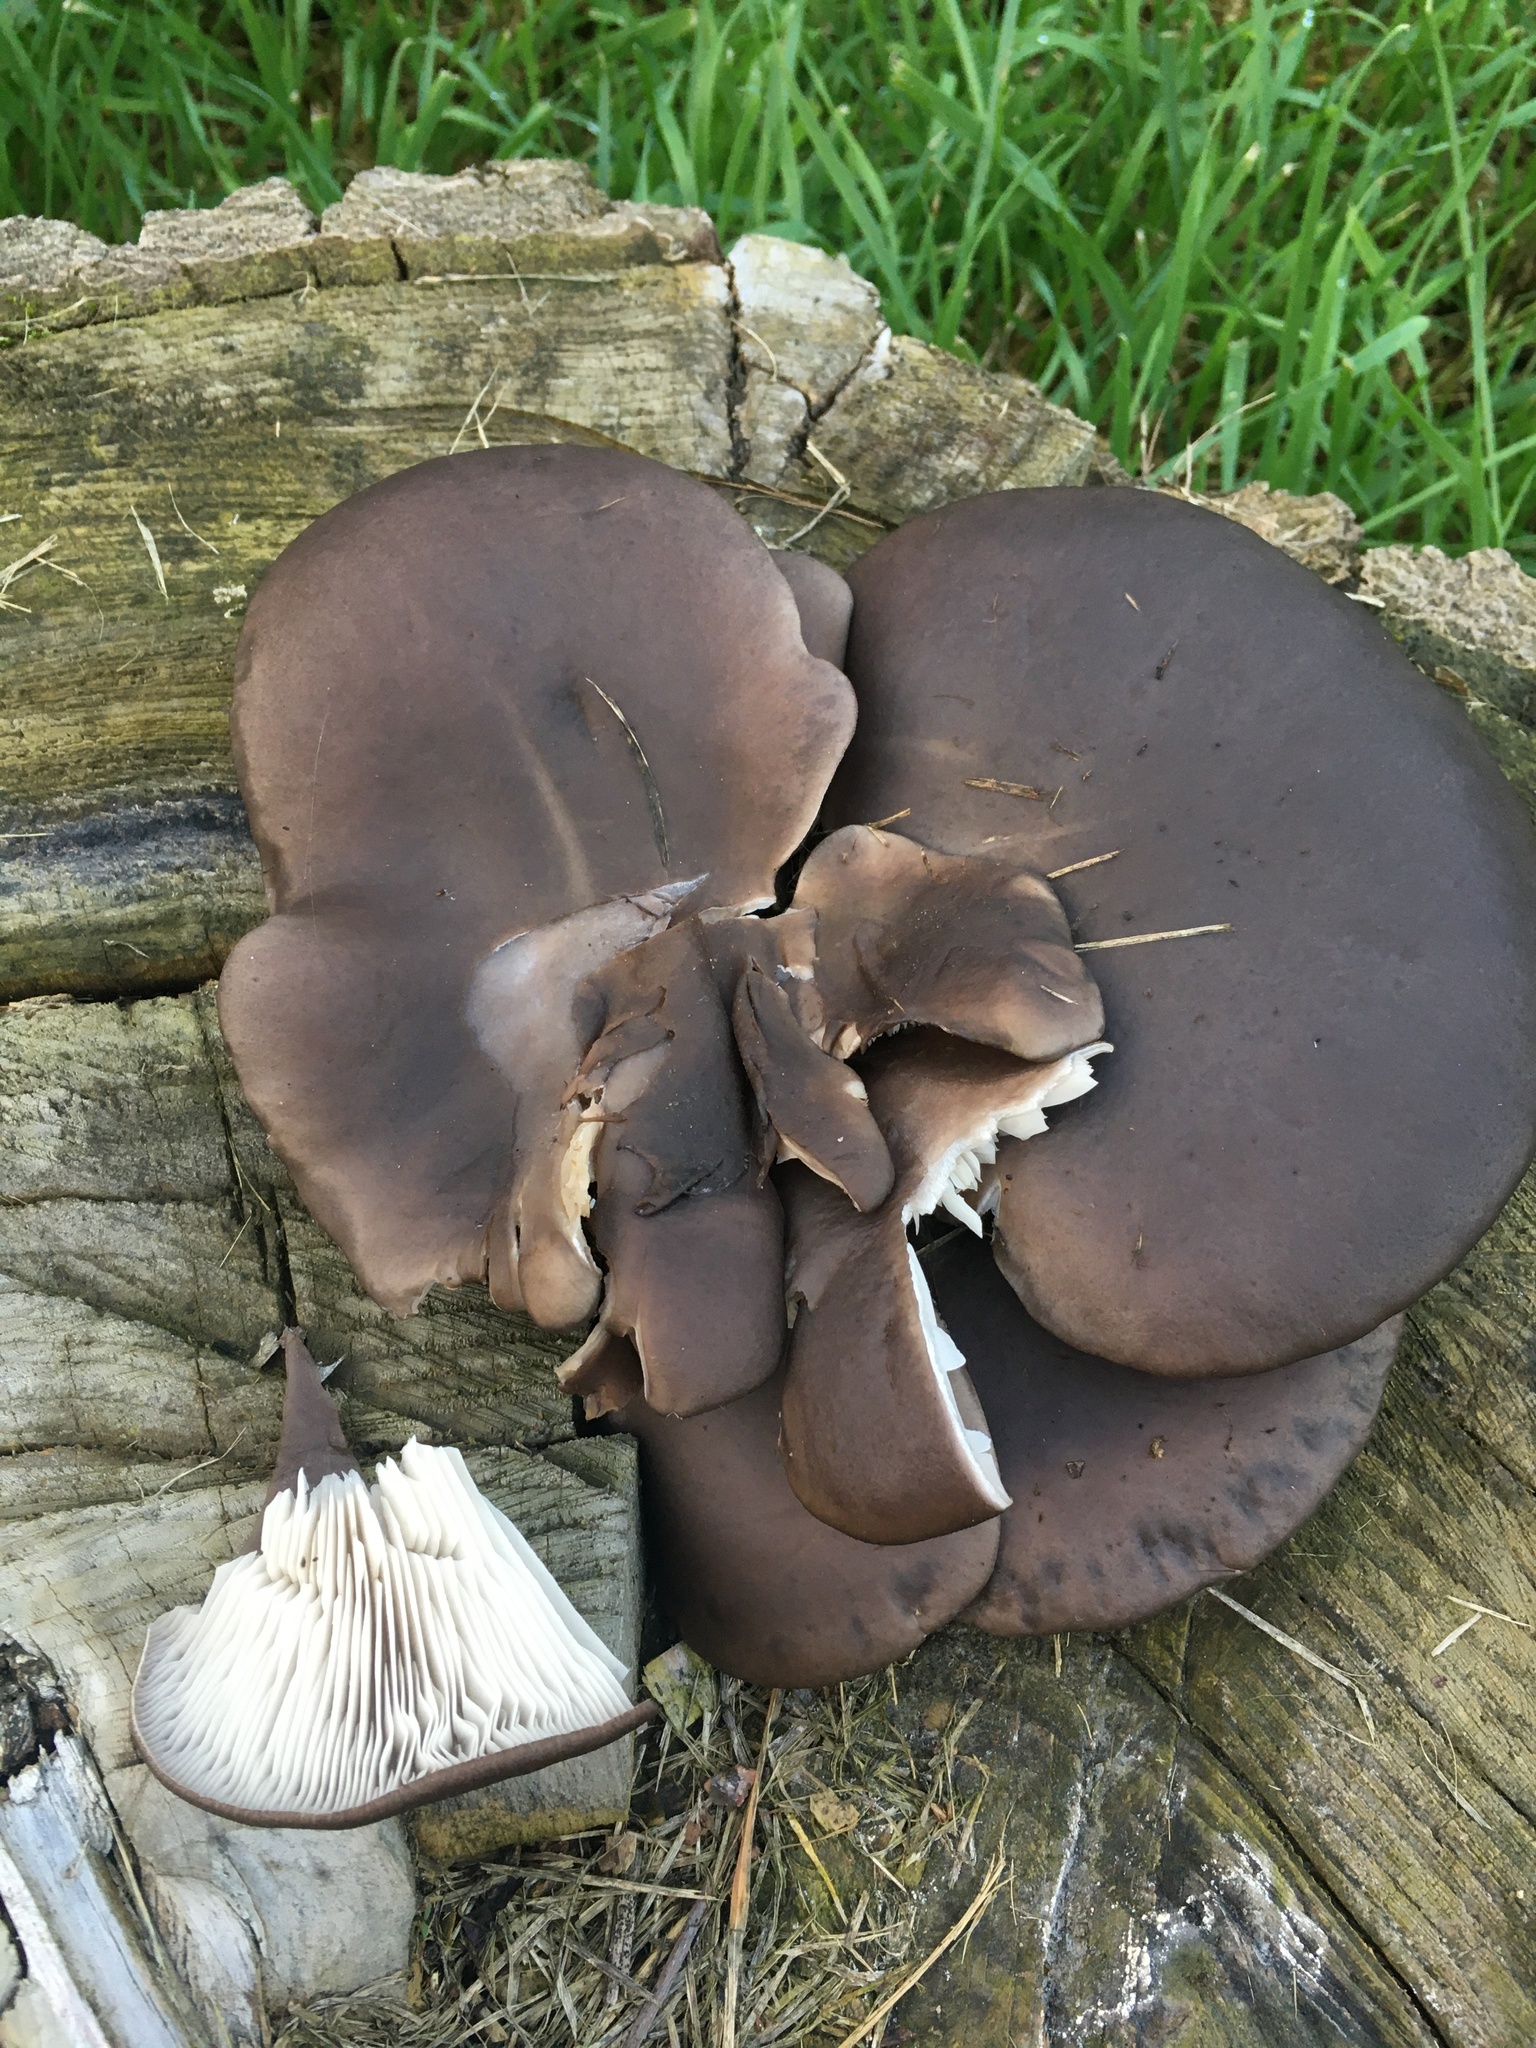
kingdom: Fungi
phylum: Basidiomycota
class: Agaricomycetes
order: Agaricales
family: Pleurotaceae
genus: Pleurotus
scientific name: Pleurotus ostreatus
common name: Oyster mushroom
